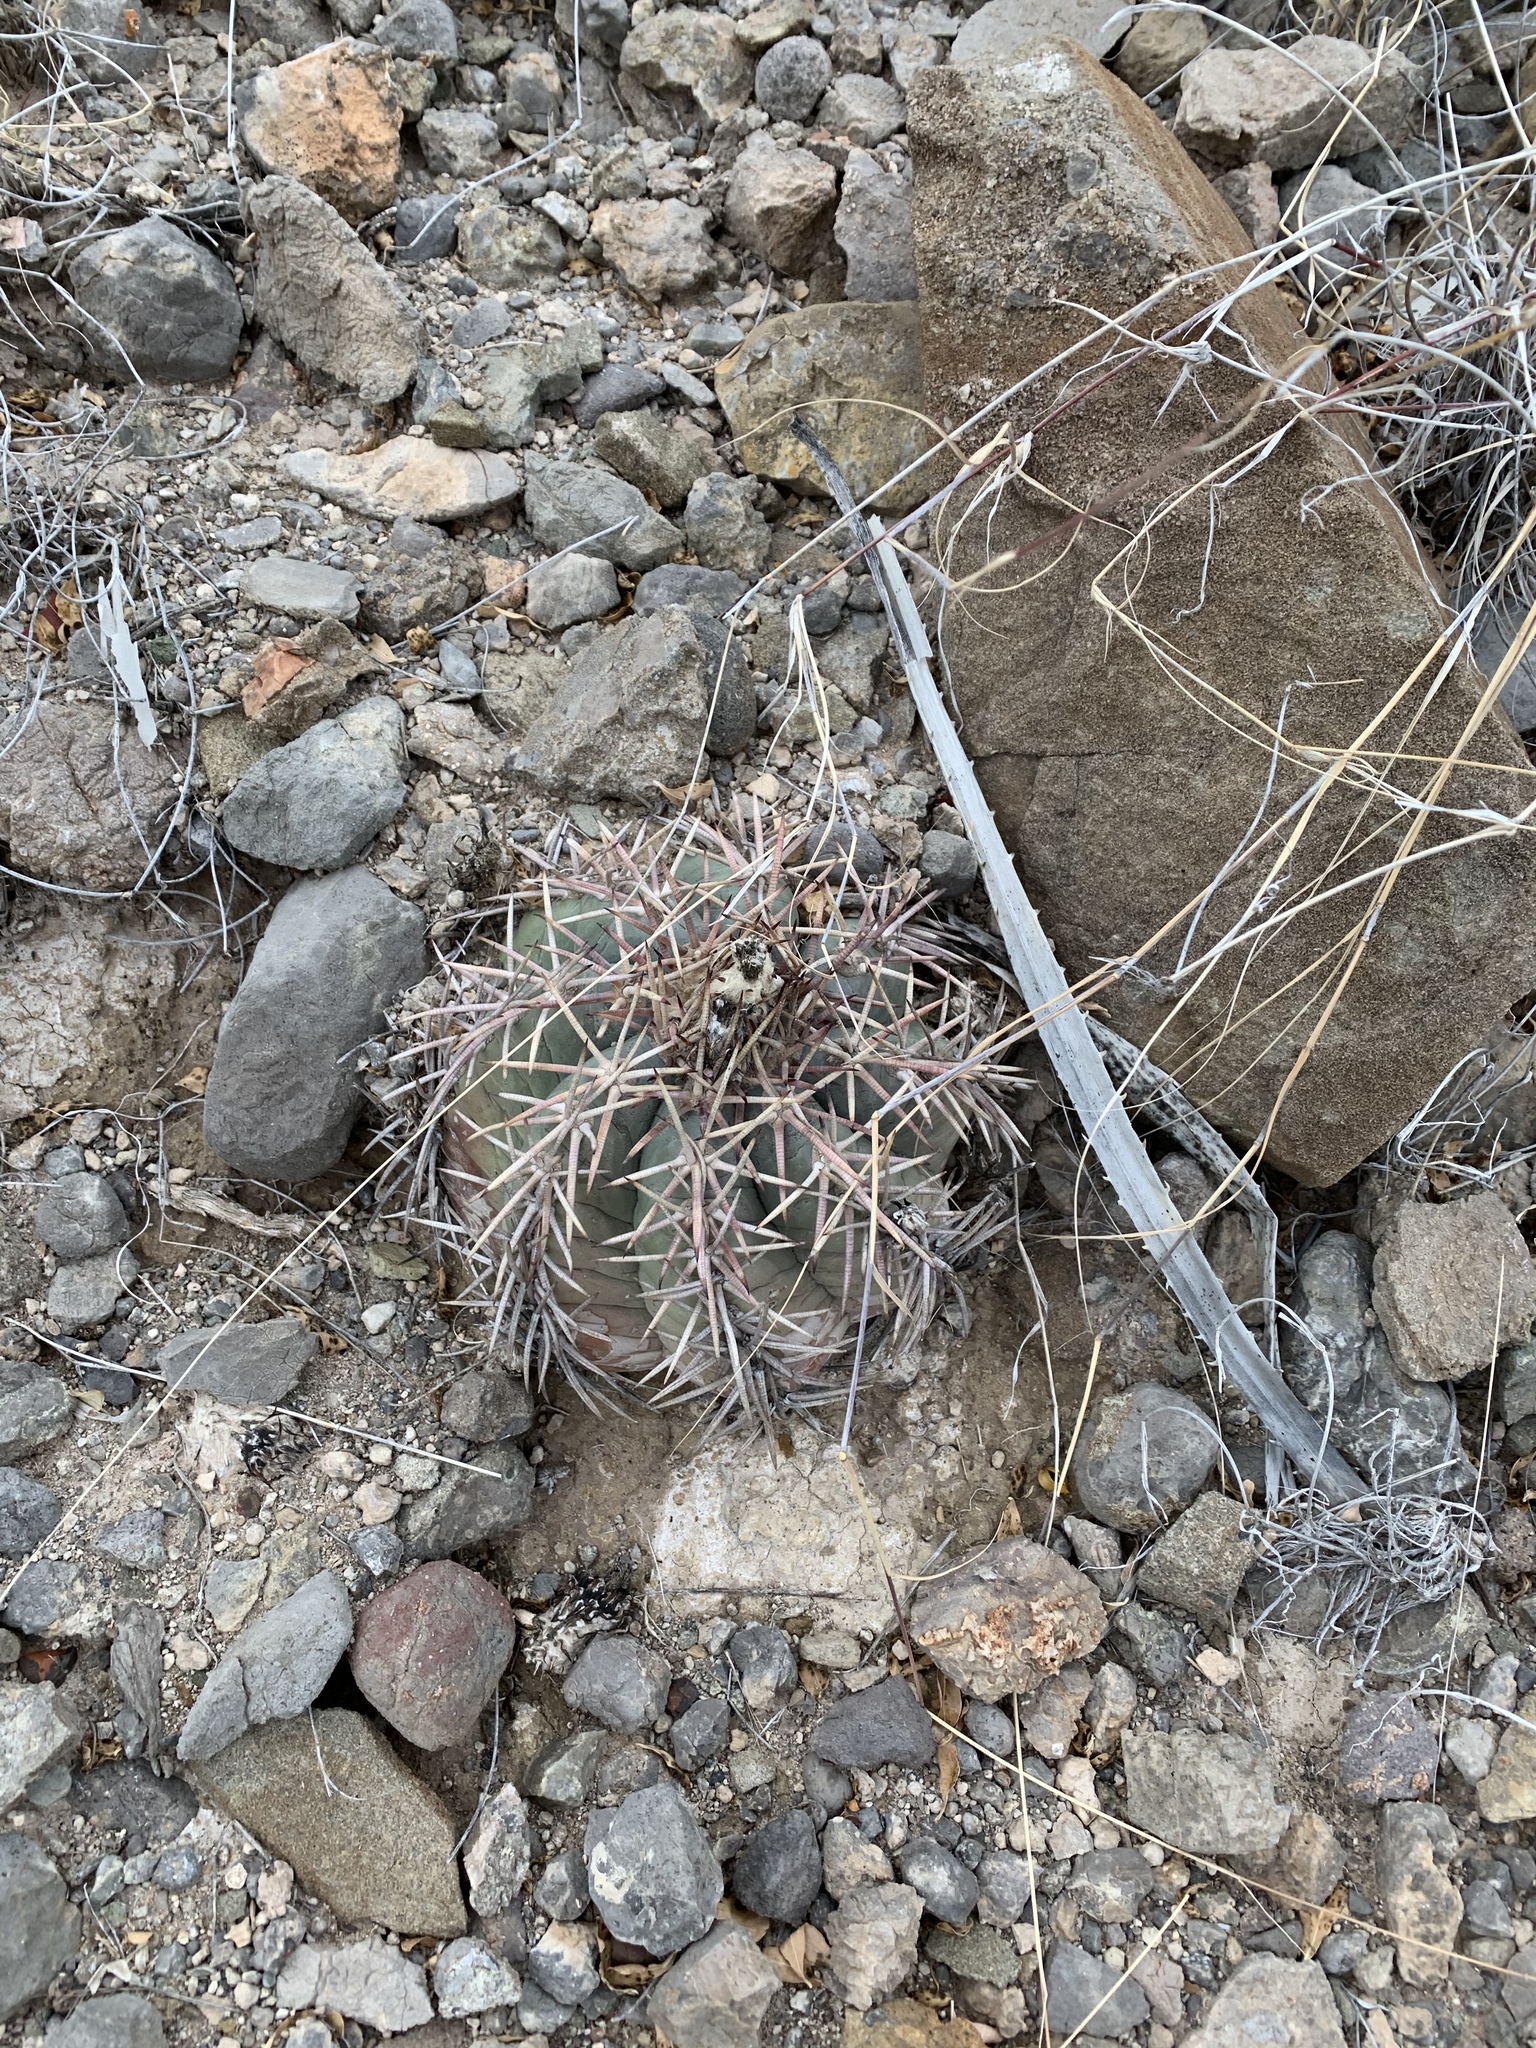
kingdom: Plantae
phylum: Tracheophyta
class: Magnoliopsida
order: Caryophyllales
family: Cactaceae
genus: Echinocactus
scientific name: Echinocactus horizonthalonius
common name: Devilshead
